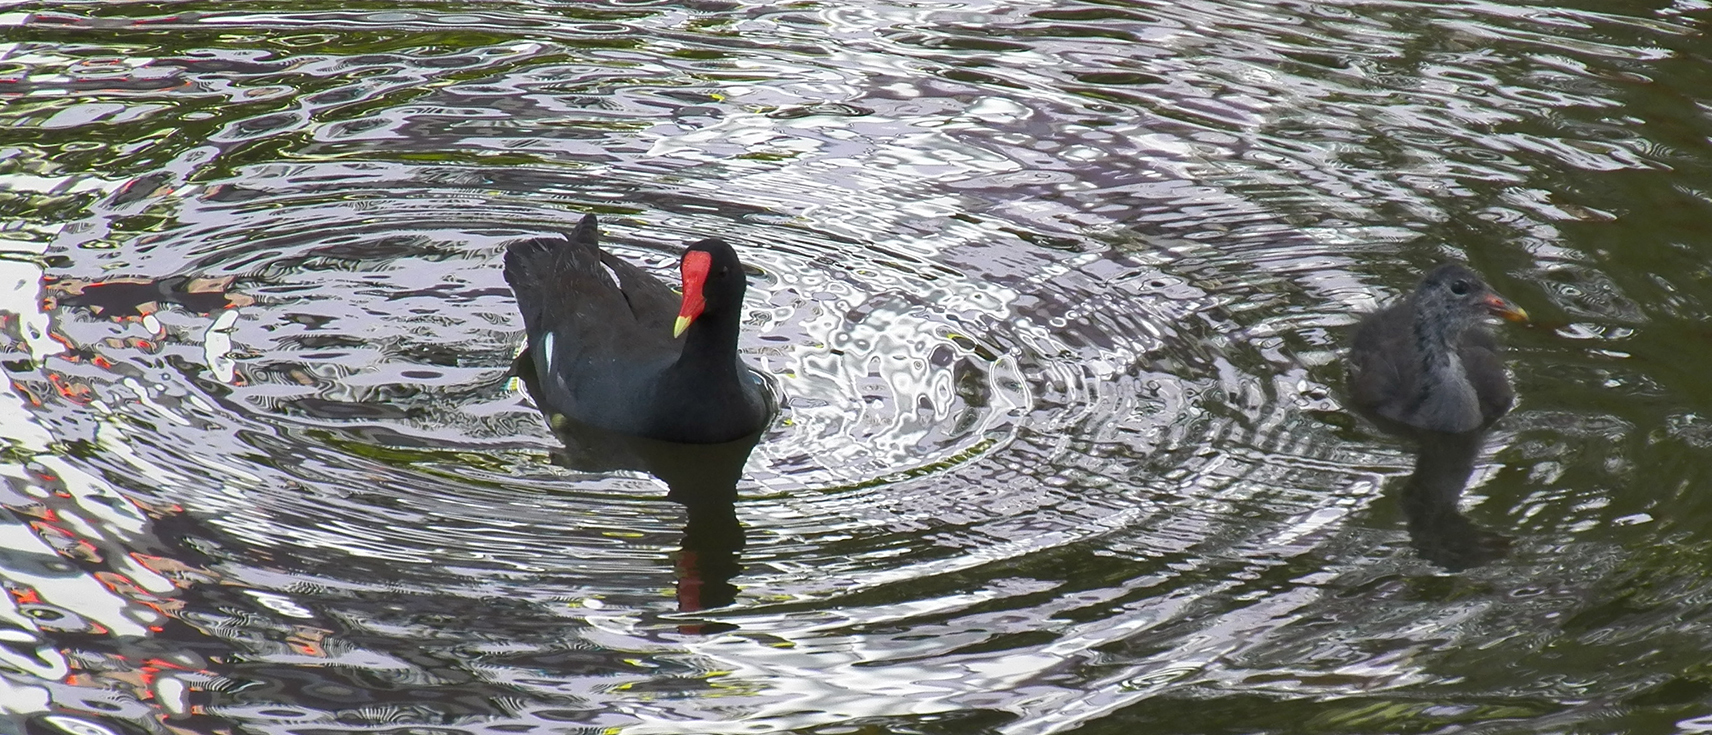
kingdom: Animalia
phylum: Chordata
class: Aves
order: Gruiformes
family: Rallidae
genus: Gallinula
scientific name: Gallinula chloropus
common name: Common moorhen
